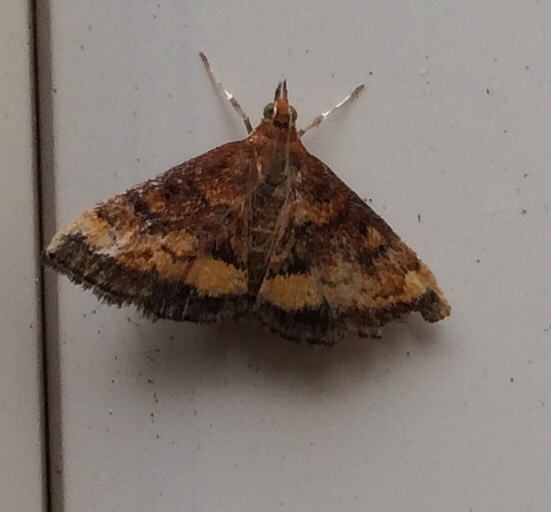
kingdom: Animalia
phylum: Arthropoda
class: Insecta
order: Lepidoptera
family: Crambidae
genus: Pyrausta
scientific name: Pyrausta californicalis
